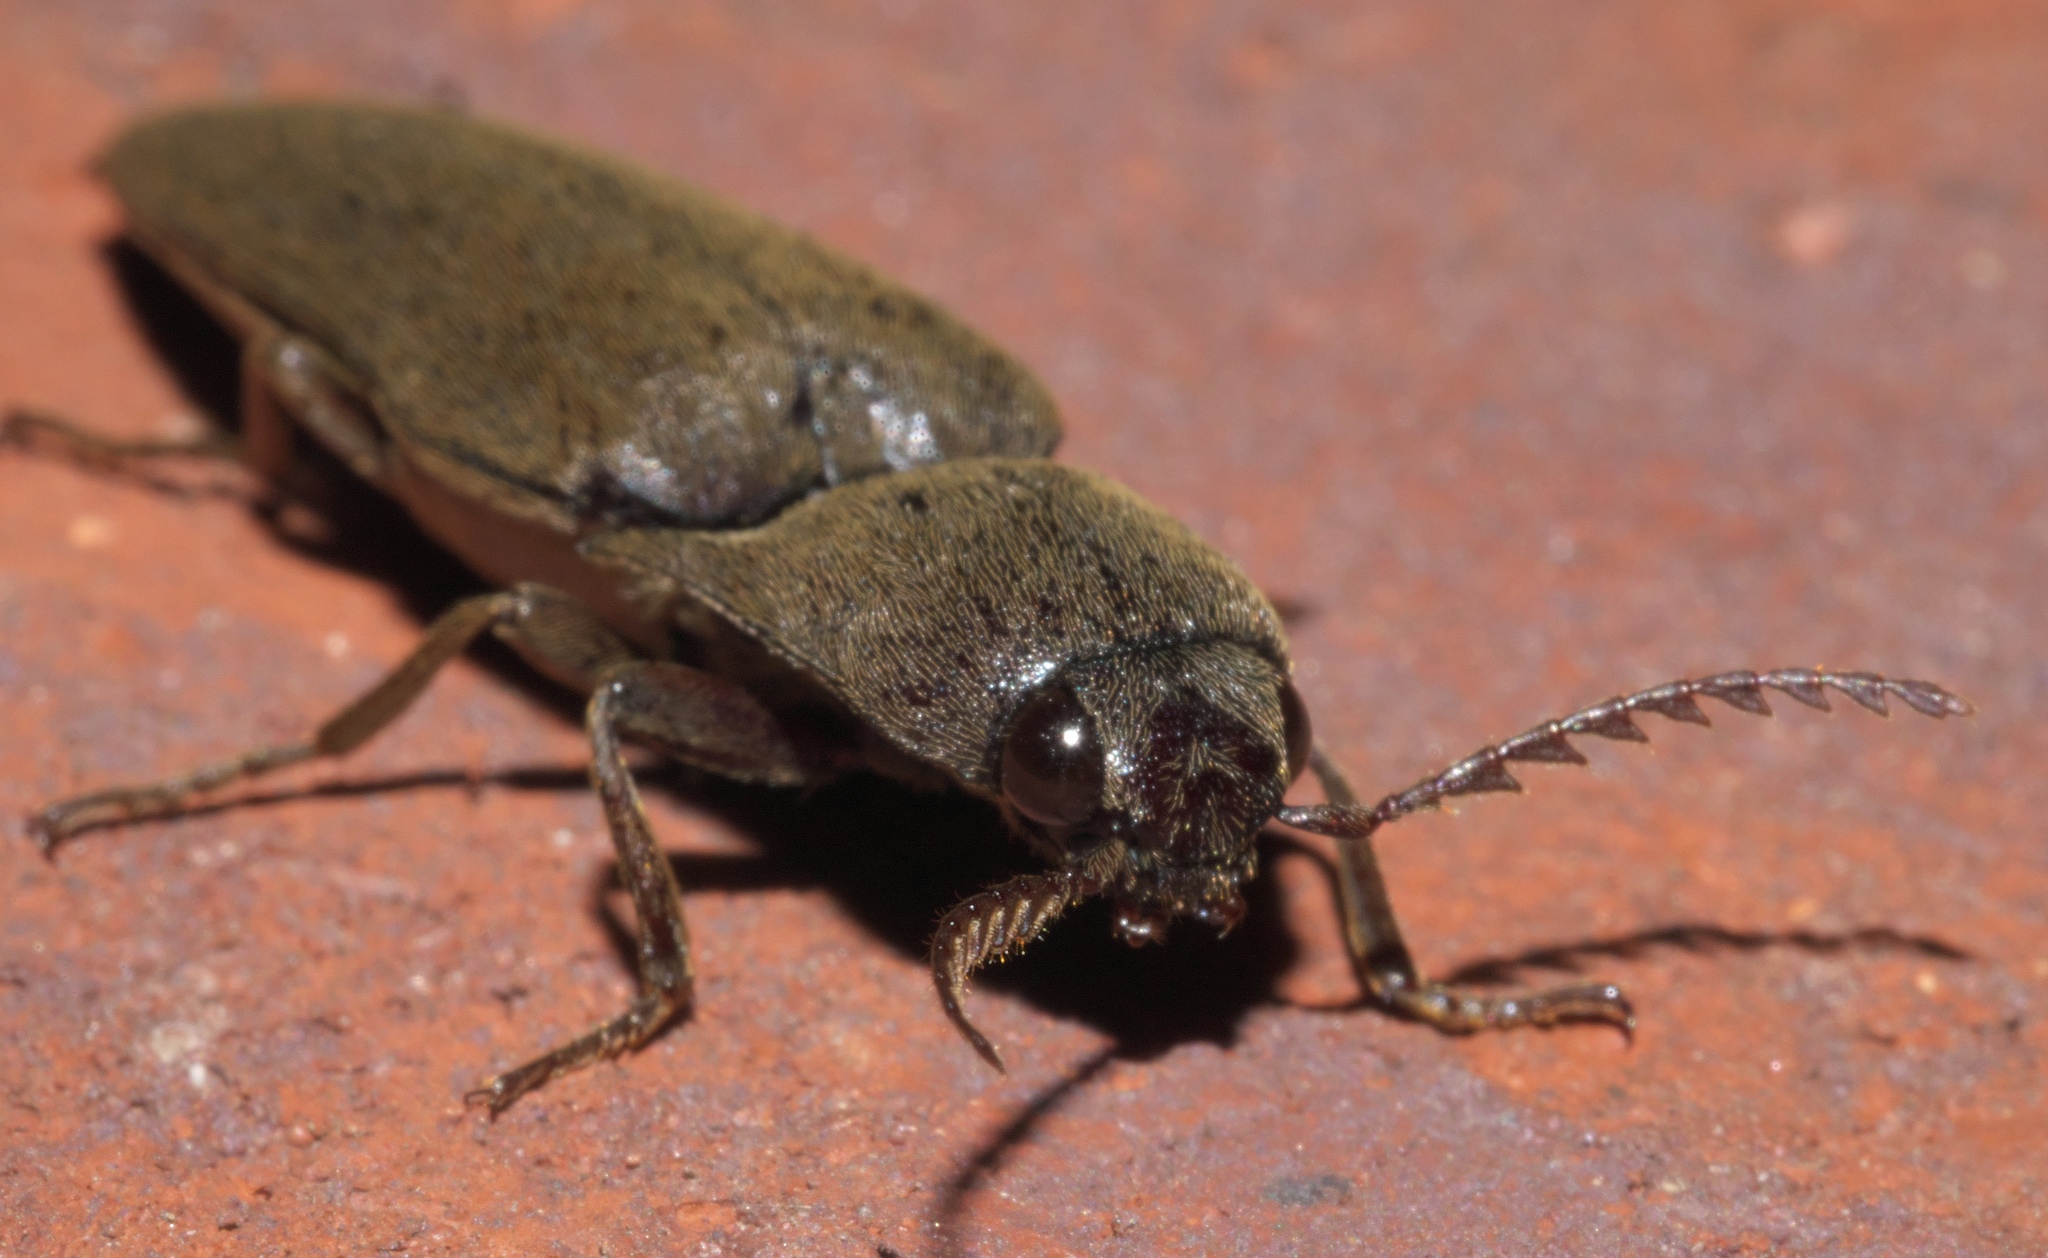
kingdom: Animalia
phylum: Arthropoda
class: Insecta
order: Coleoptera
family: Elateridae
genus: Orthostethus
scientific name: Orthostethus infuscatus
